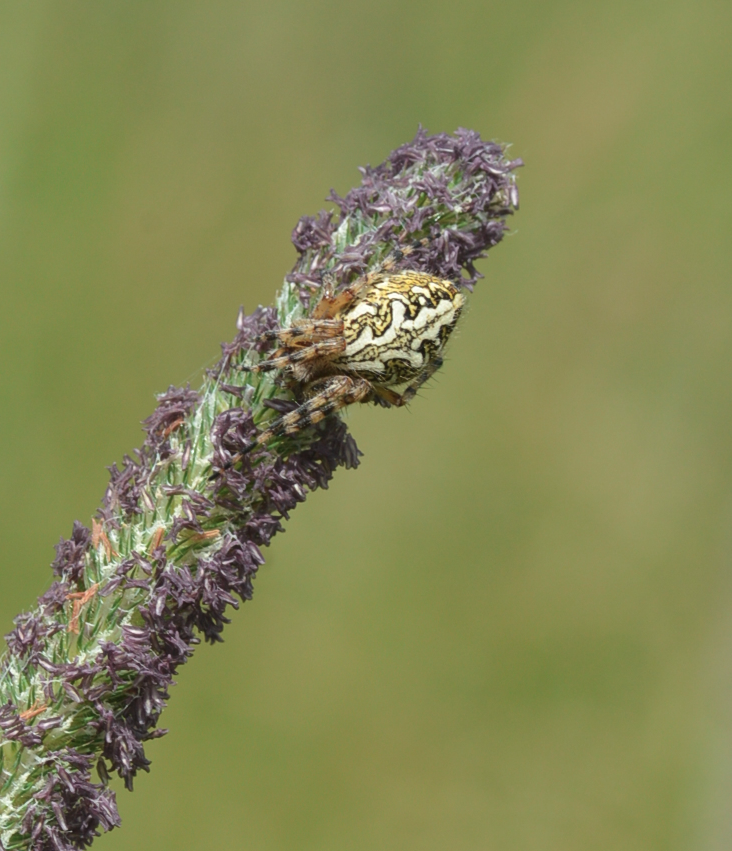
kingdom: Animalia
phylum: Arthropoda
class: Arachnida
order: Araneae
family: Araneidae
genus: Aculepeira
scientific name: Aculepeira ceropegia
